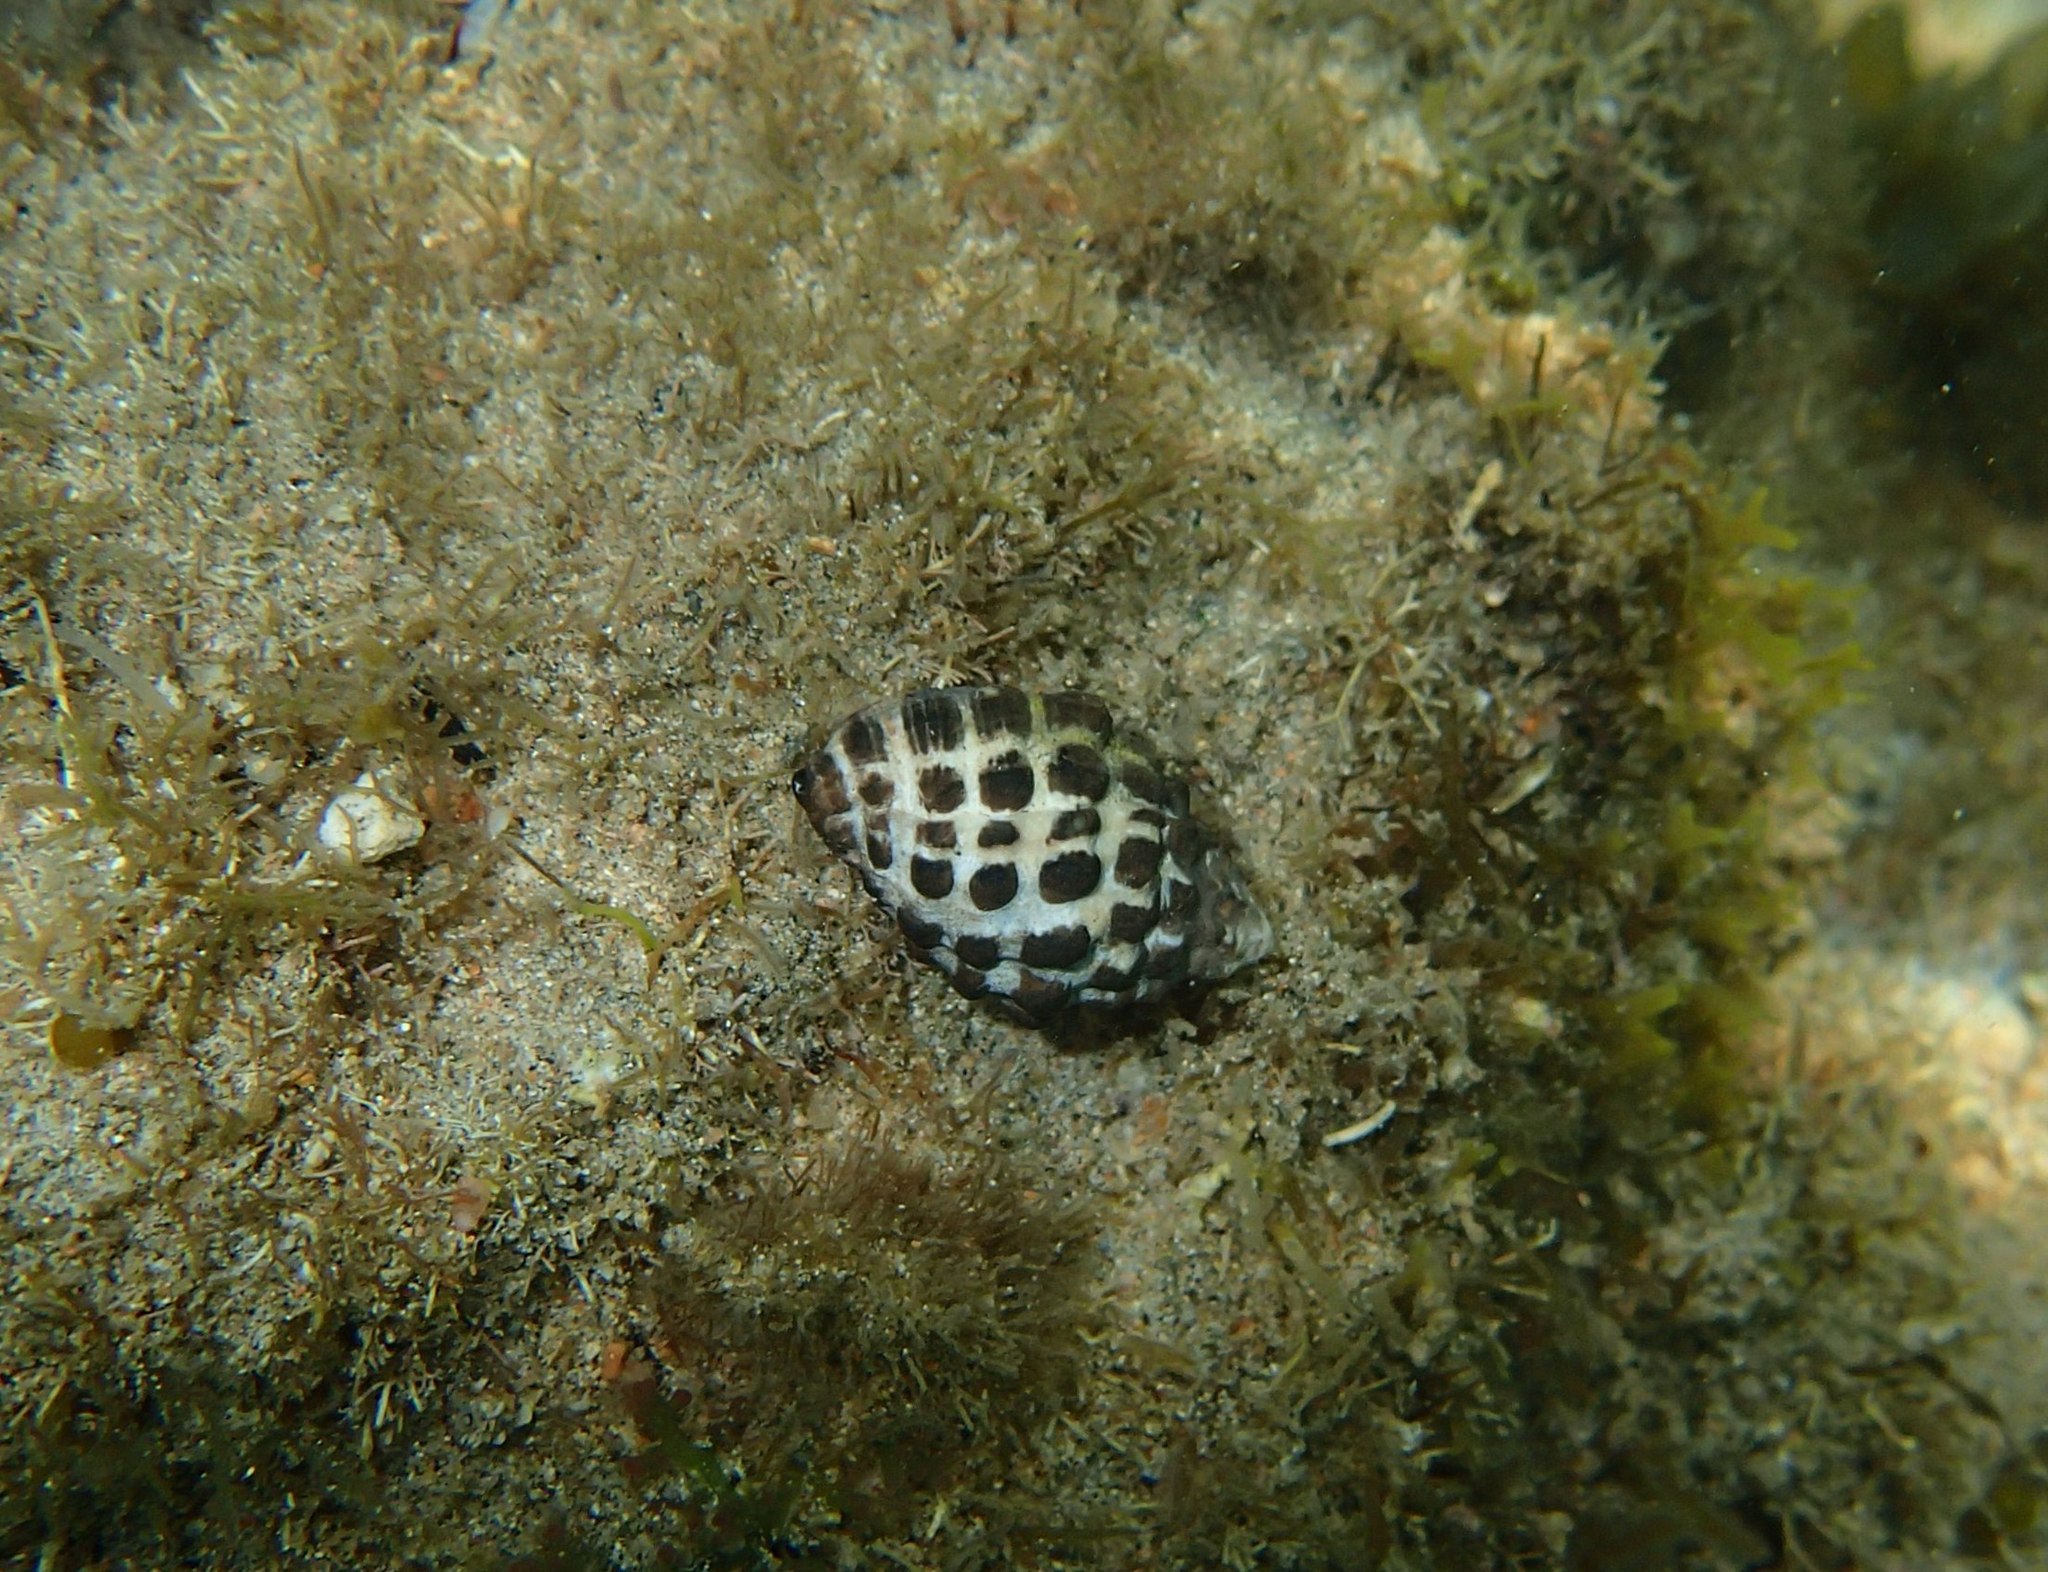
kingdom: Animalia
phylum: Mollusca
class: Gastropoda
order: Neogastropoda
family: Muricidae
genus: Tenguella
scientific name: Tenguella marginalba
